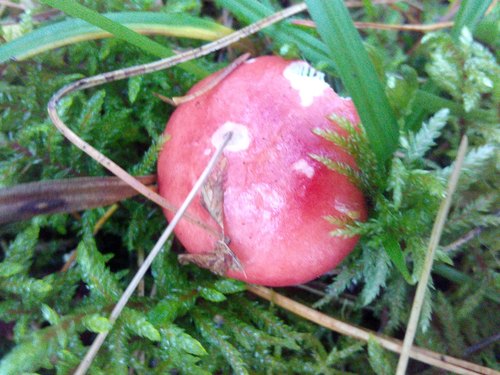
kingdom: Fungi
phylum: Basidiomycota
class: Agaricomycetes
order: Russulales
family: Russulaceae
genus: Russula
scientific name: Russula sanguinea
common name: Bloody brittlegill
